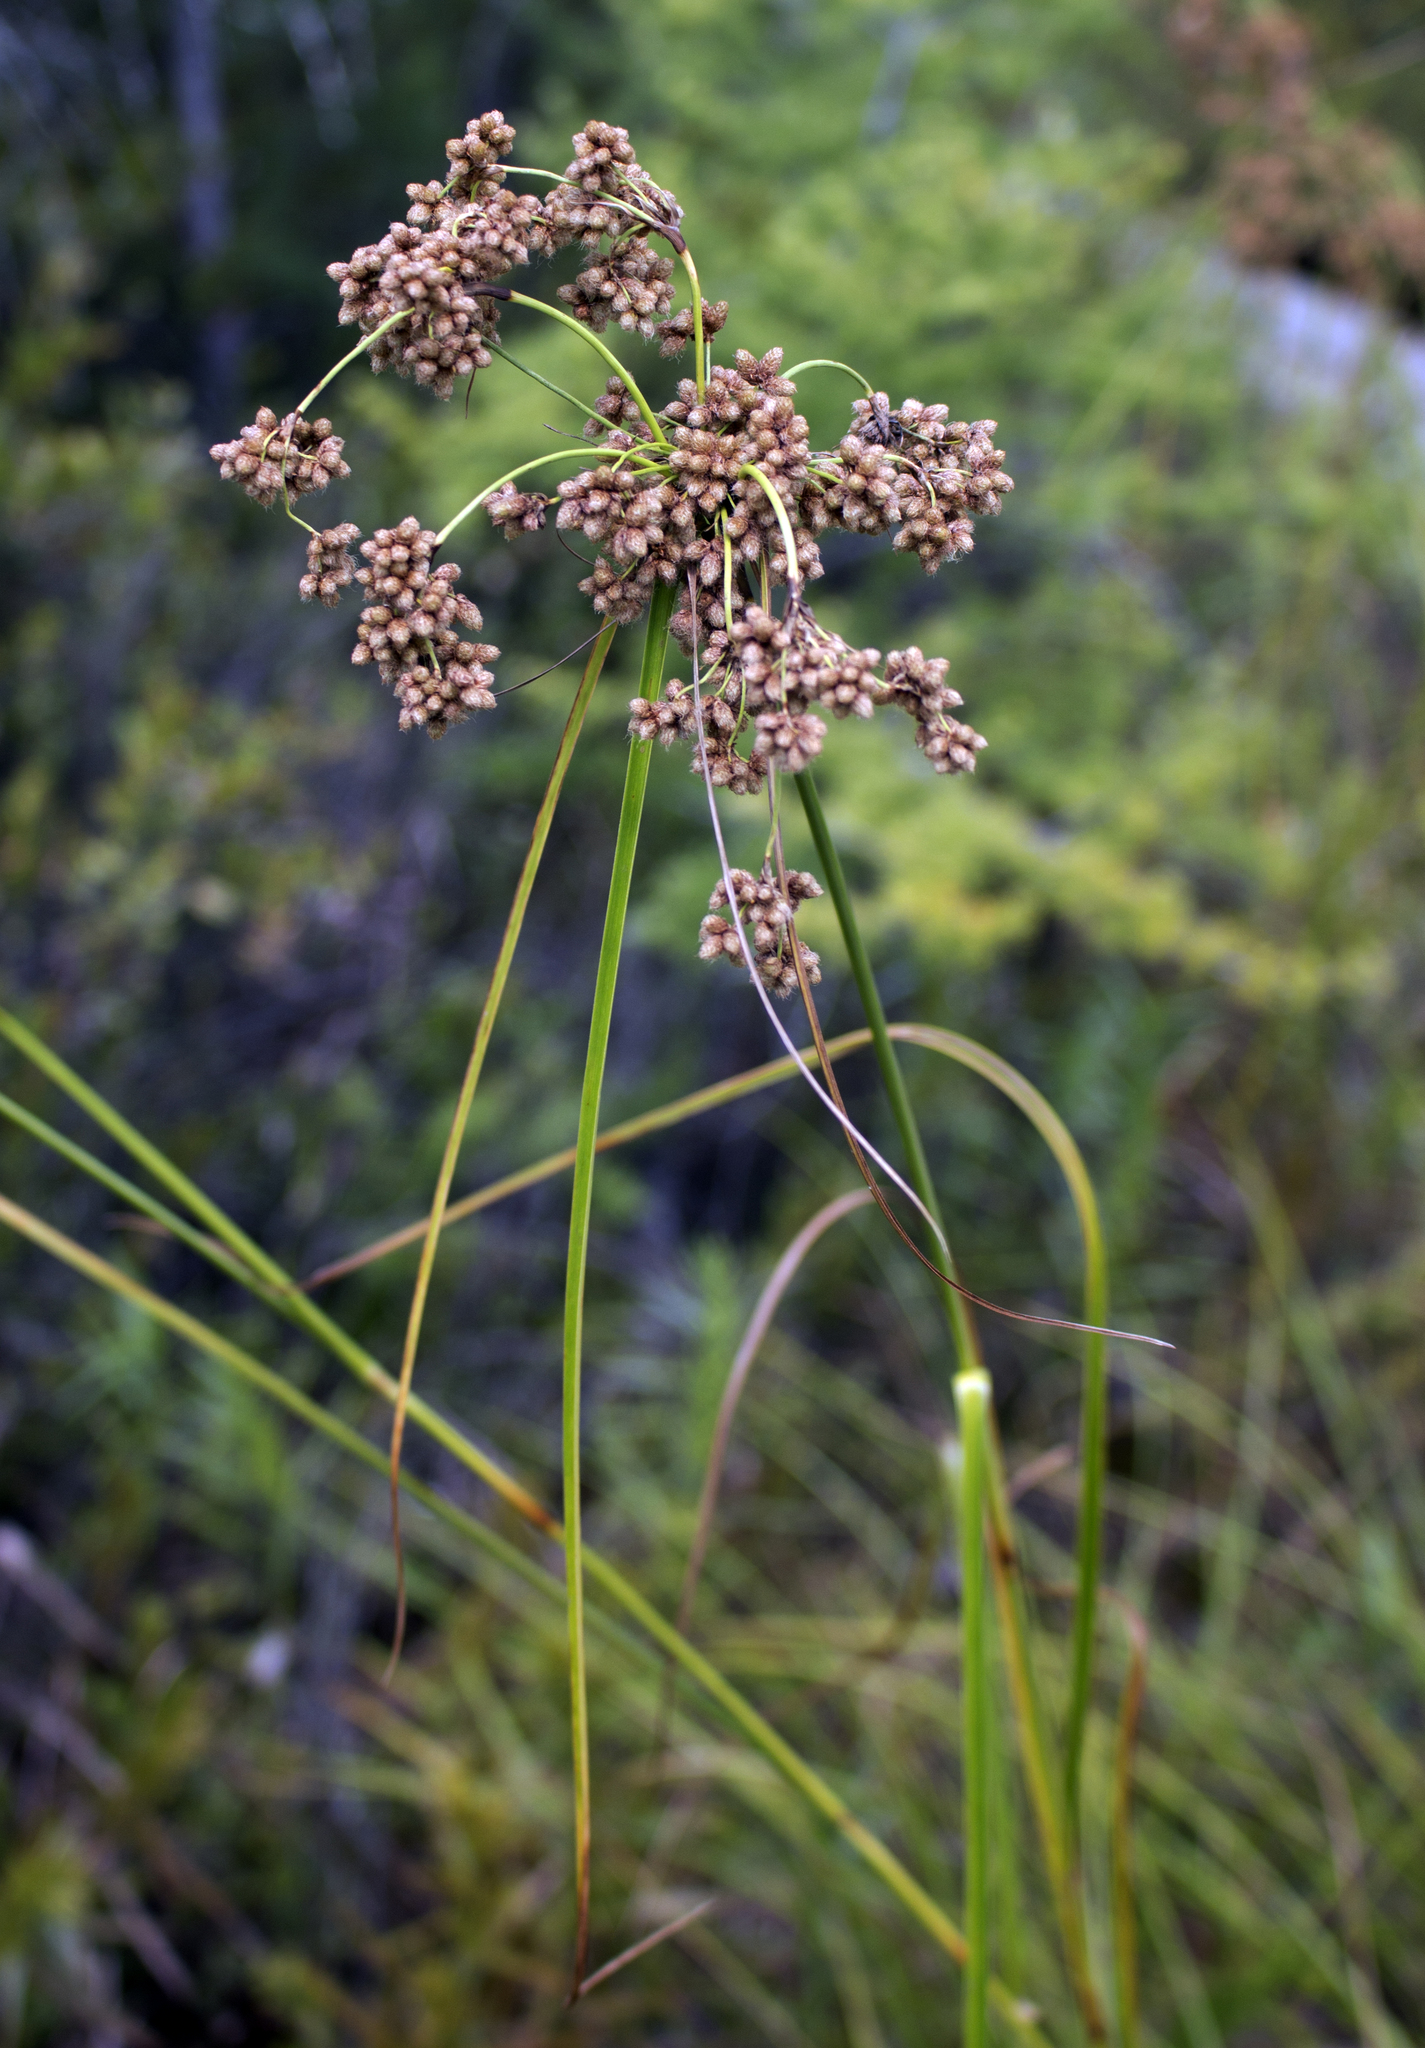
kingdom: Plantae
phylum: Tracheophyta
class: Liliopsida
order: Poales
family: Cyperaceae
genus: Scirpus
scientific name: Scirpus cyperinus
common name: Black-sheathed bulrush
